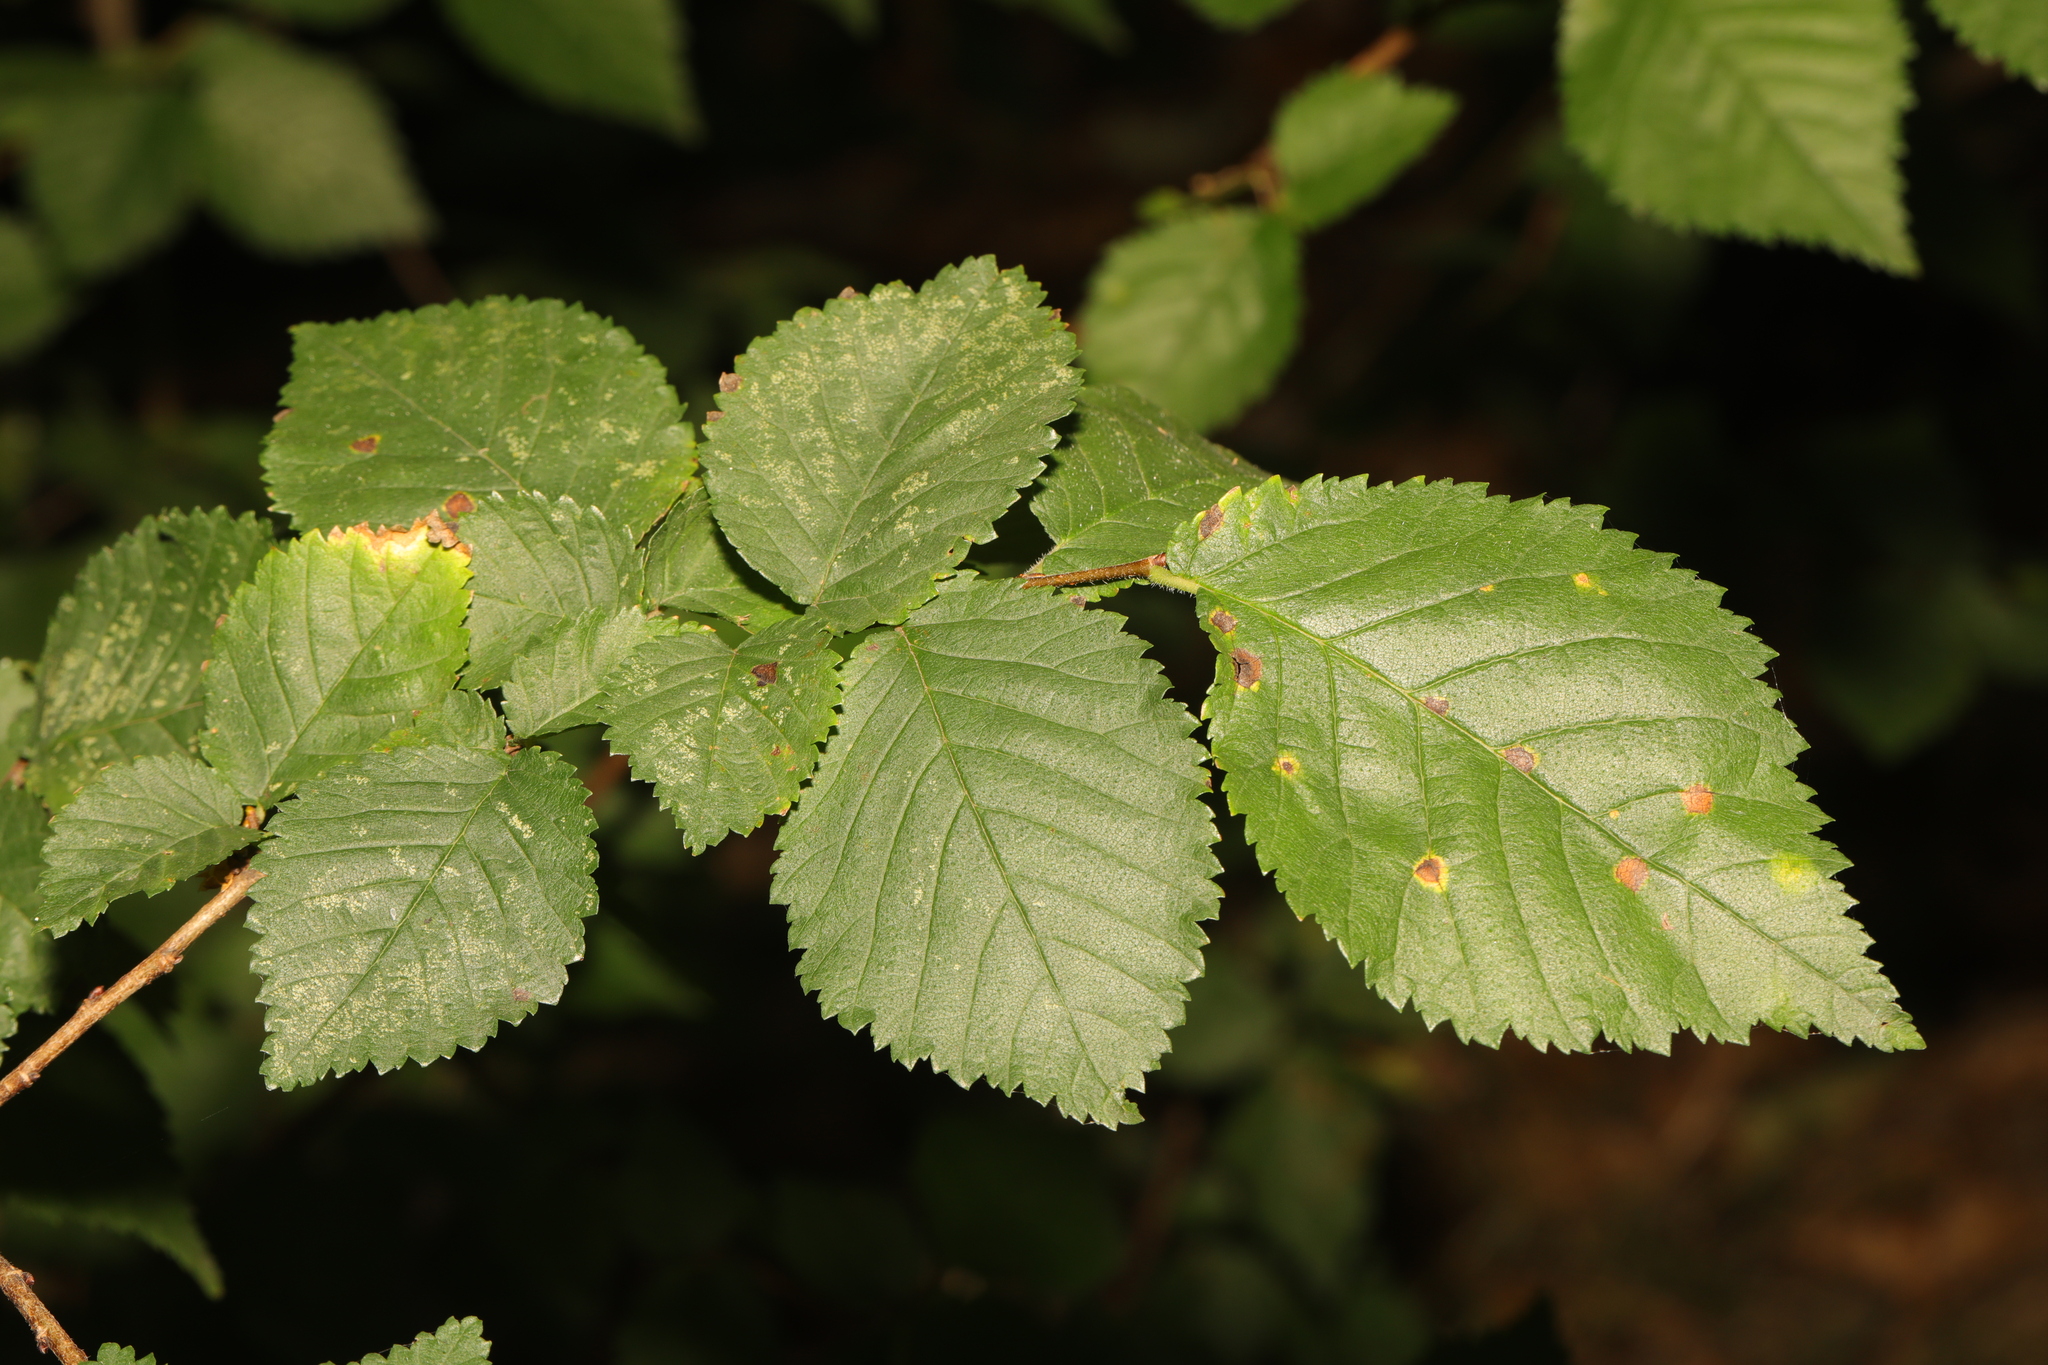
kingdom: Plantae
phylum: Tracheophyta
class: Magnoliopsida
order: Rosales
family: Ulmaceae
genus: Ulmus
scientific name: Ulmus minor
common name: Small-leaved elm
